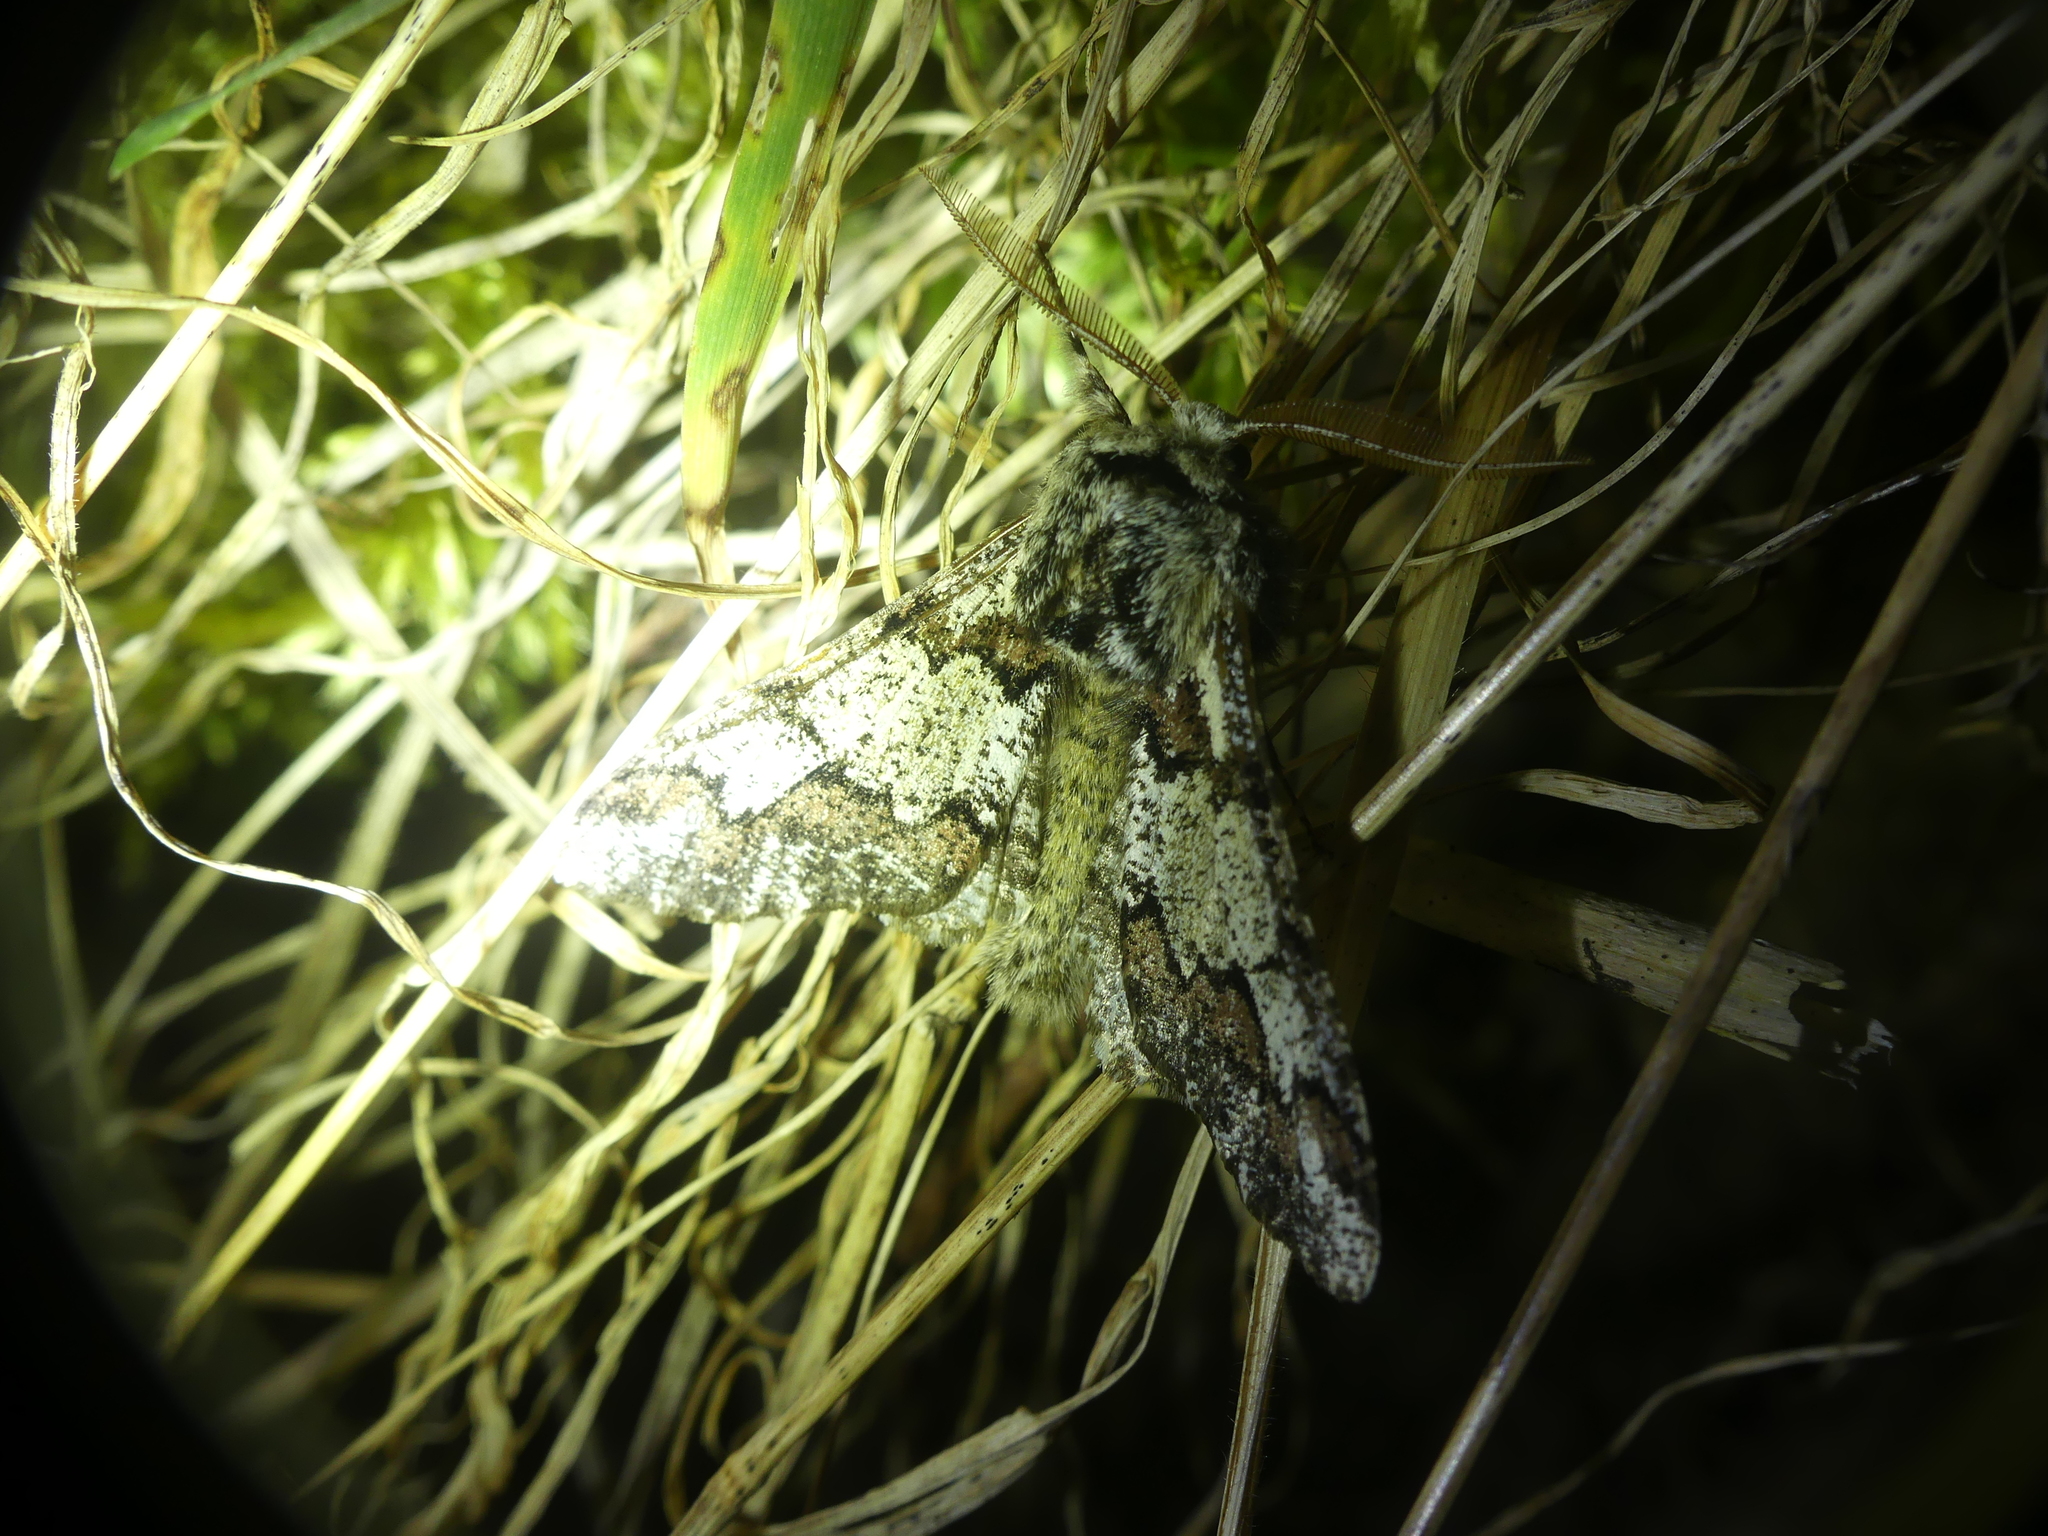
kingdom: Animalia
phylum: Arthropoda
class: Insecta
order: Lepidoptera
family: Geometridae
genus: Biston
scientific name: Biston strataria
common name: Oak beauty
